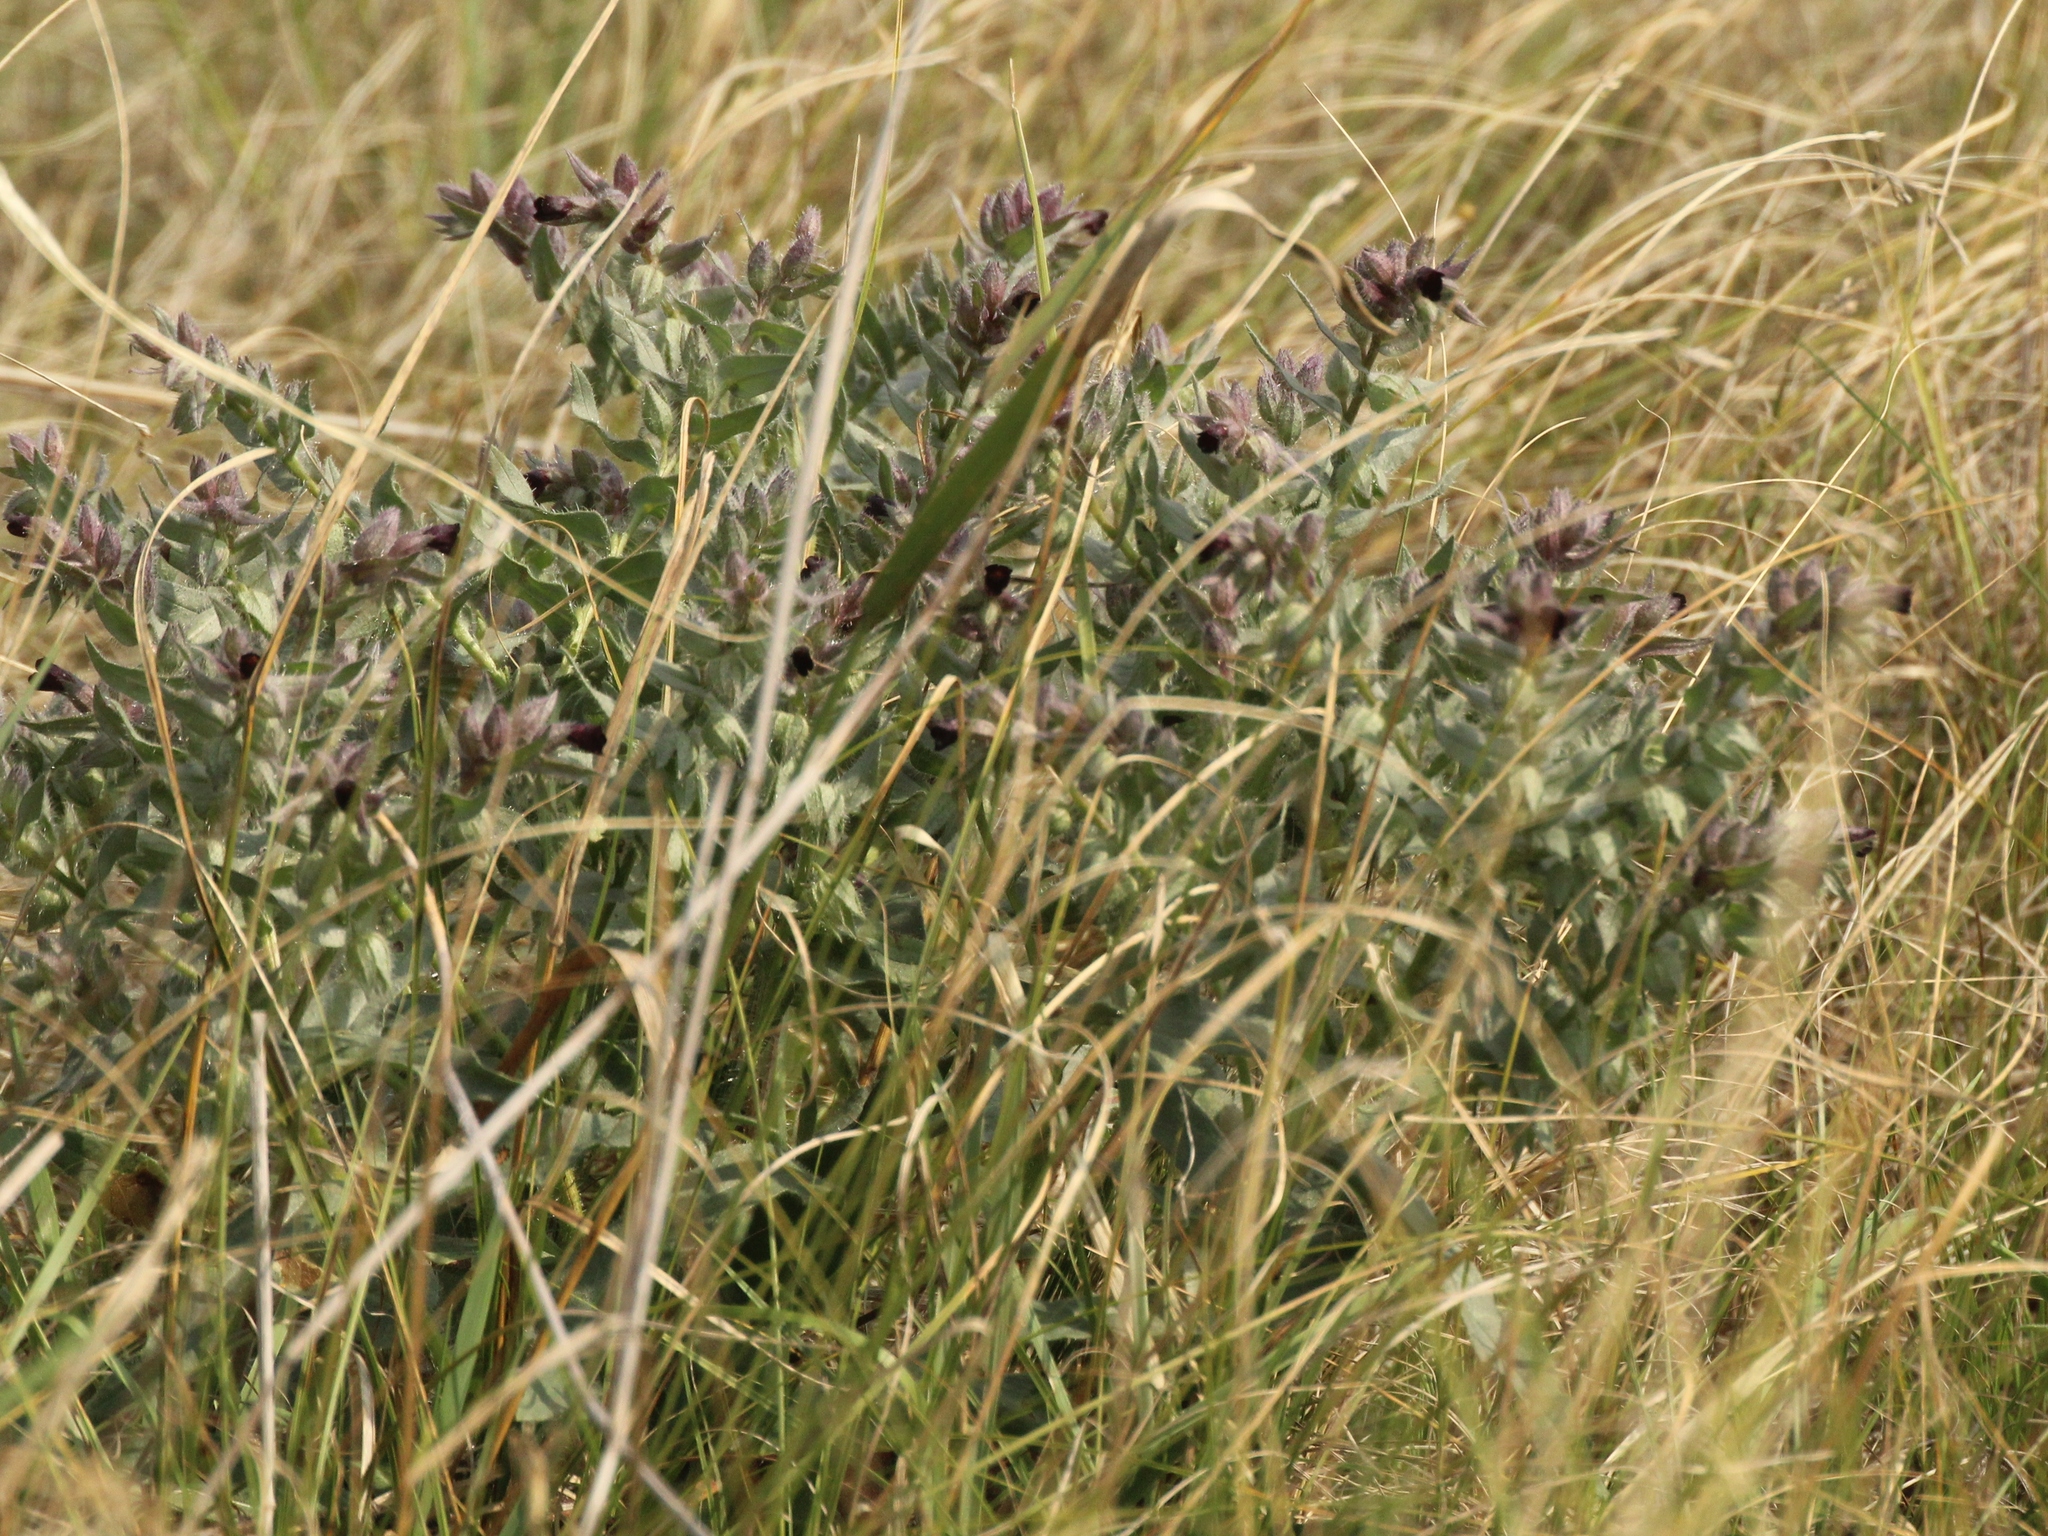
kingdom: Plantae
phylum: Tracheophyta
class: Magnoliopsida
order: Boraginales
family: Boraginaceae
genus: Nonea
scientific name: Nonea pulla
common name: Brown nonea
